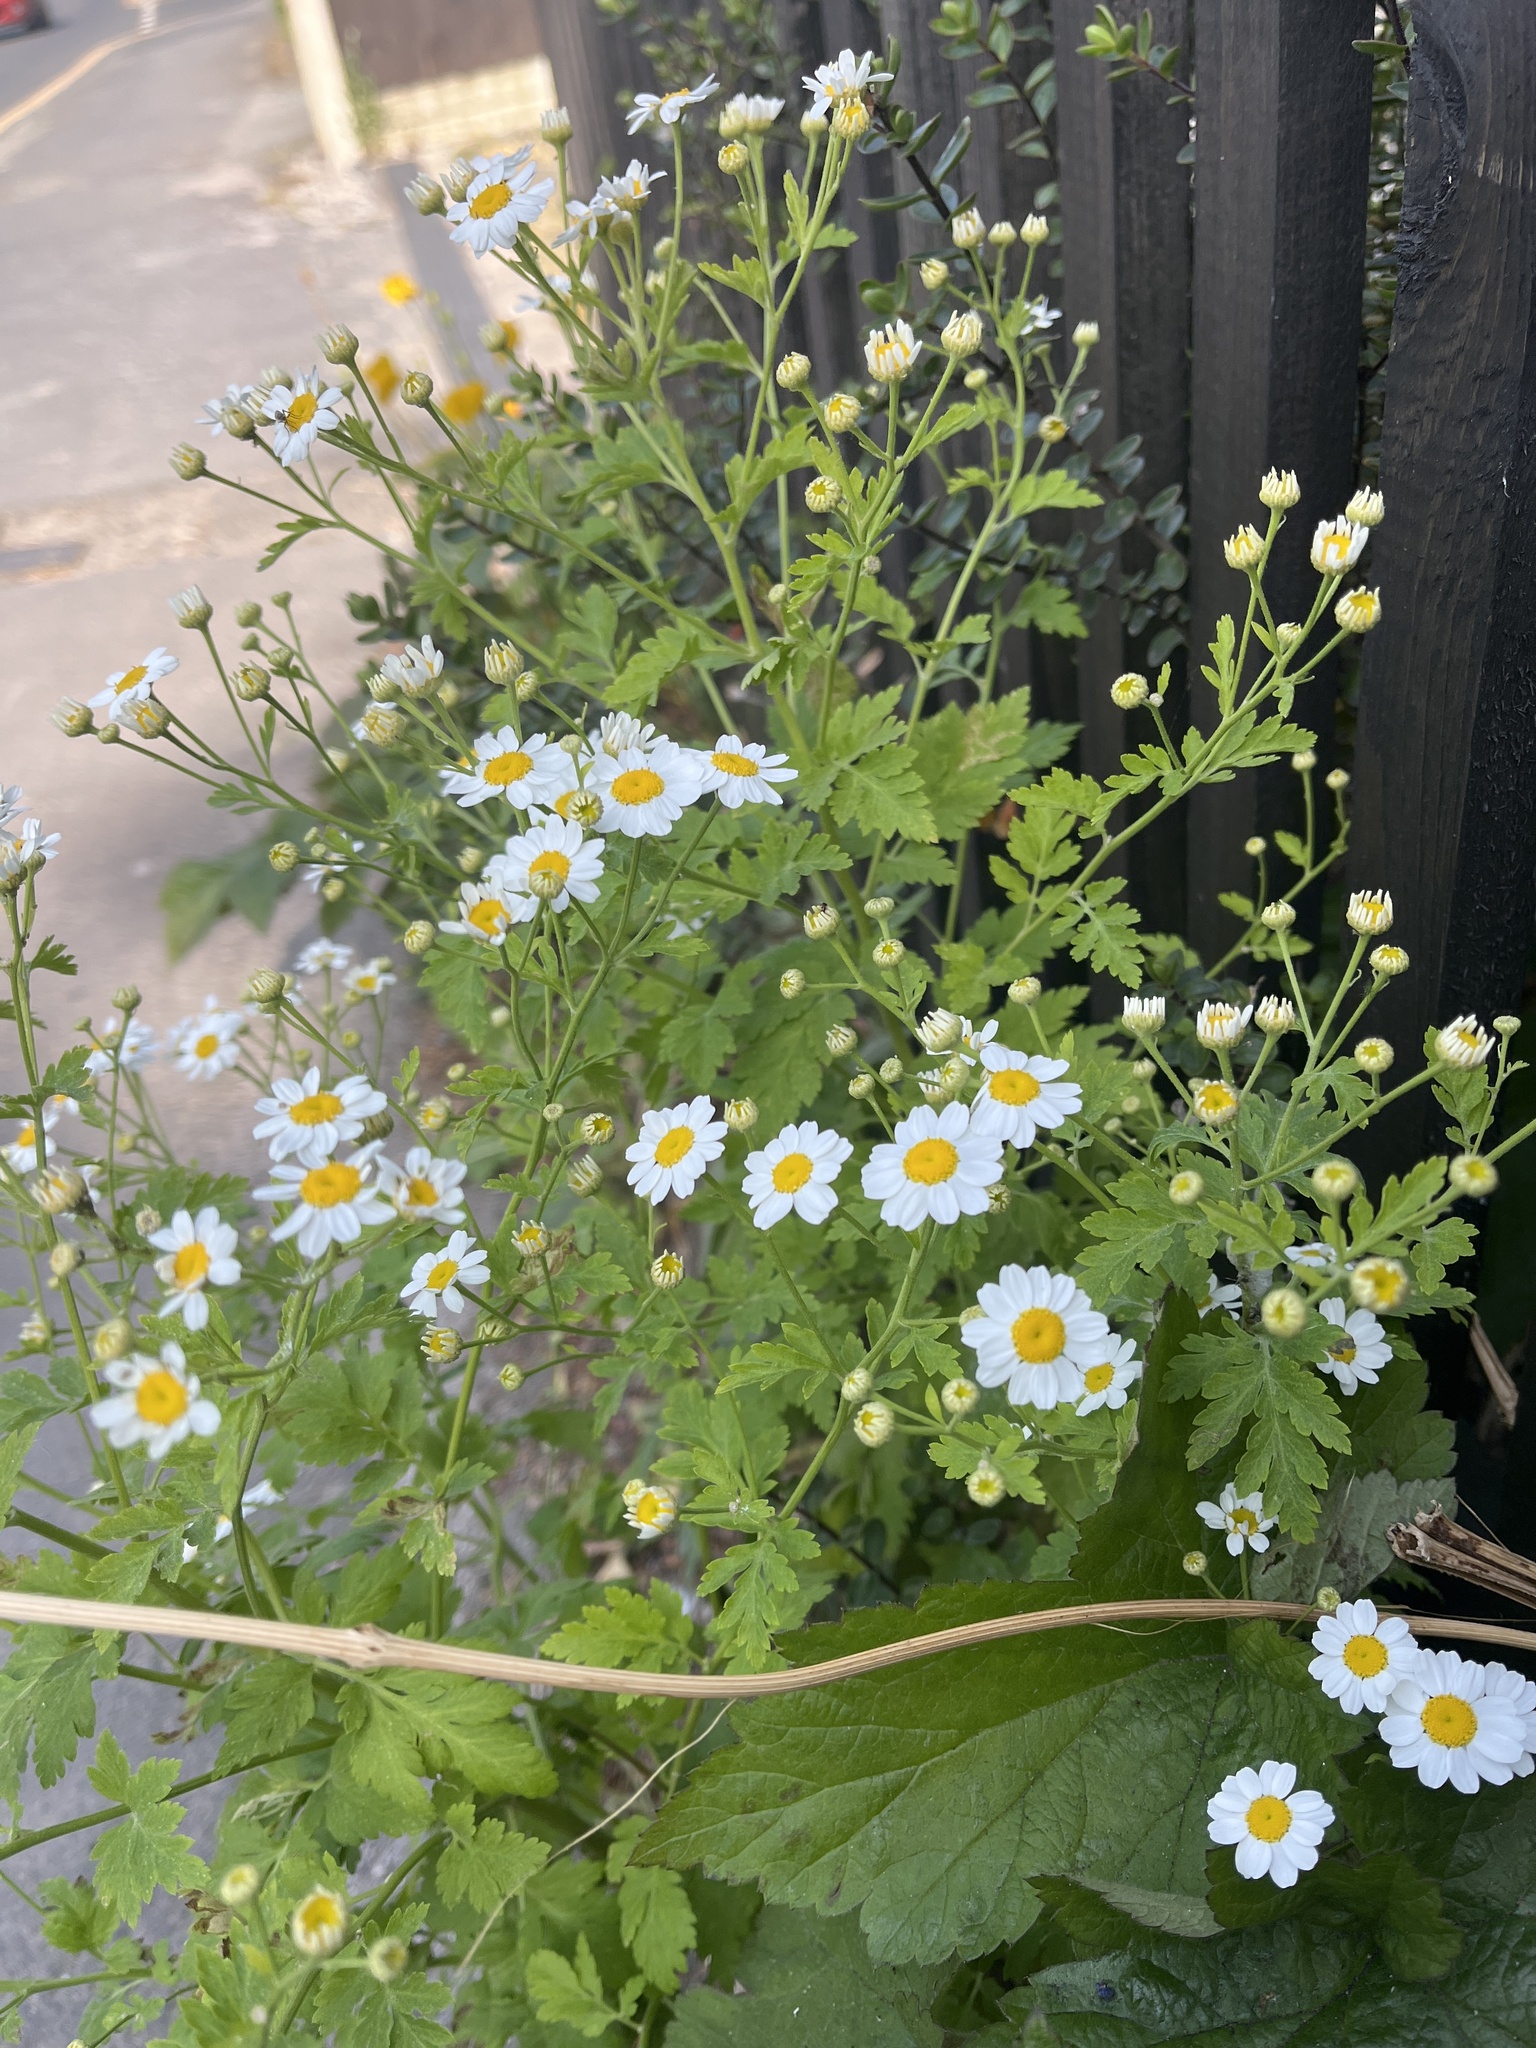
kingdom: Plantae
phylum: Tracheophyta
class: Magnoliopsida
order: Asterales
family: Asteraceae
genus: Tanacetum
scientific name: Tanacetum parthenium
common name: Feverfew
